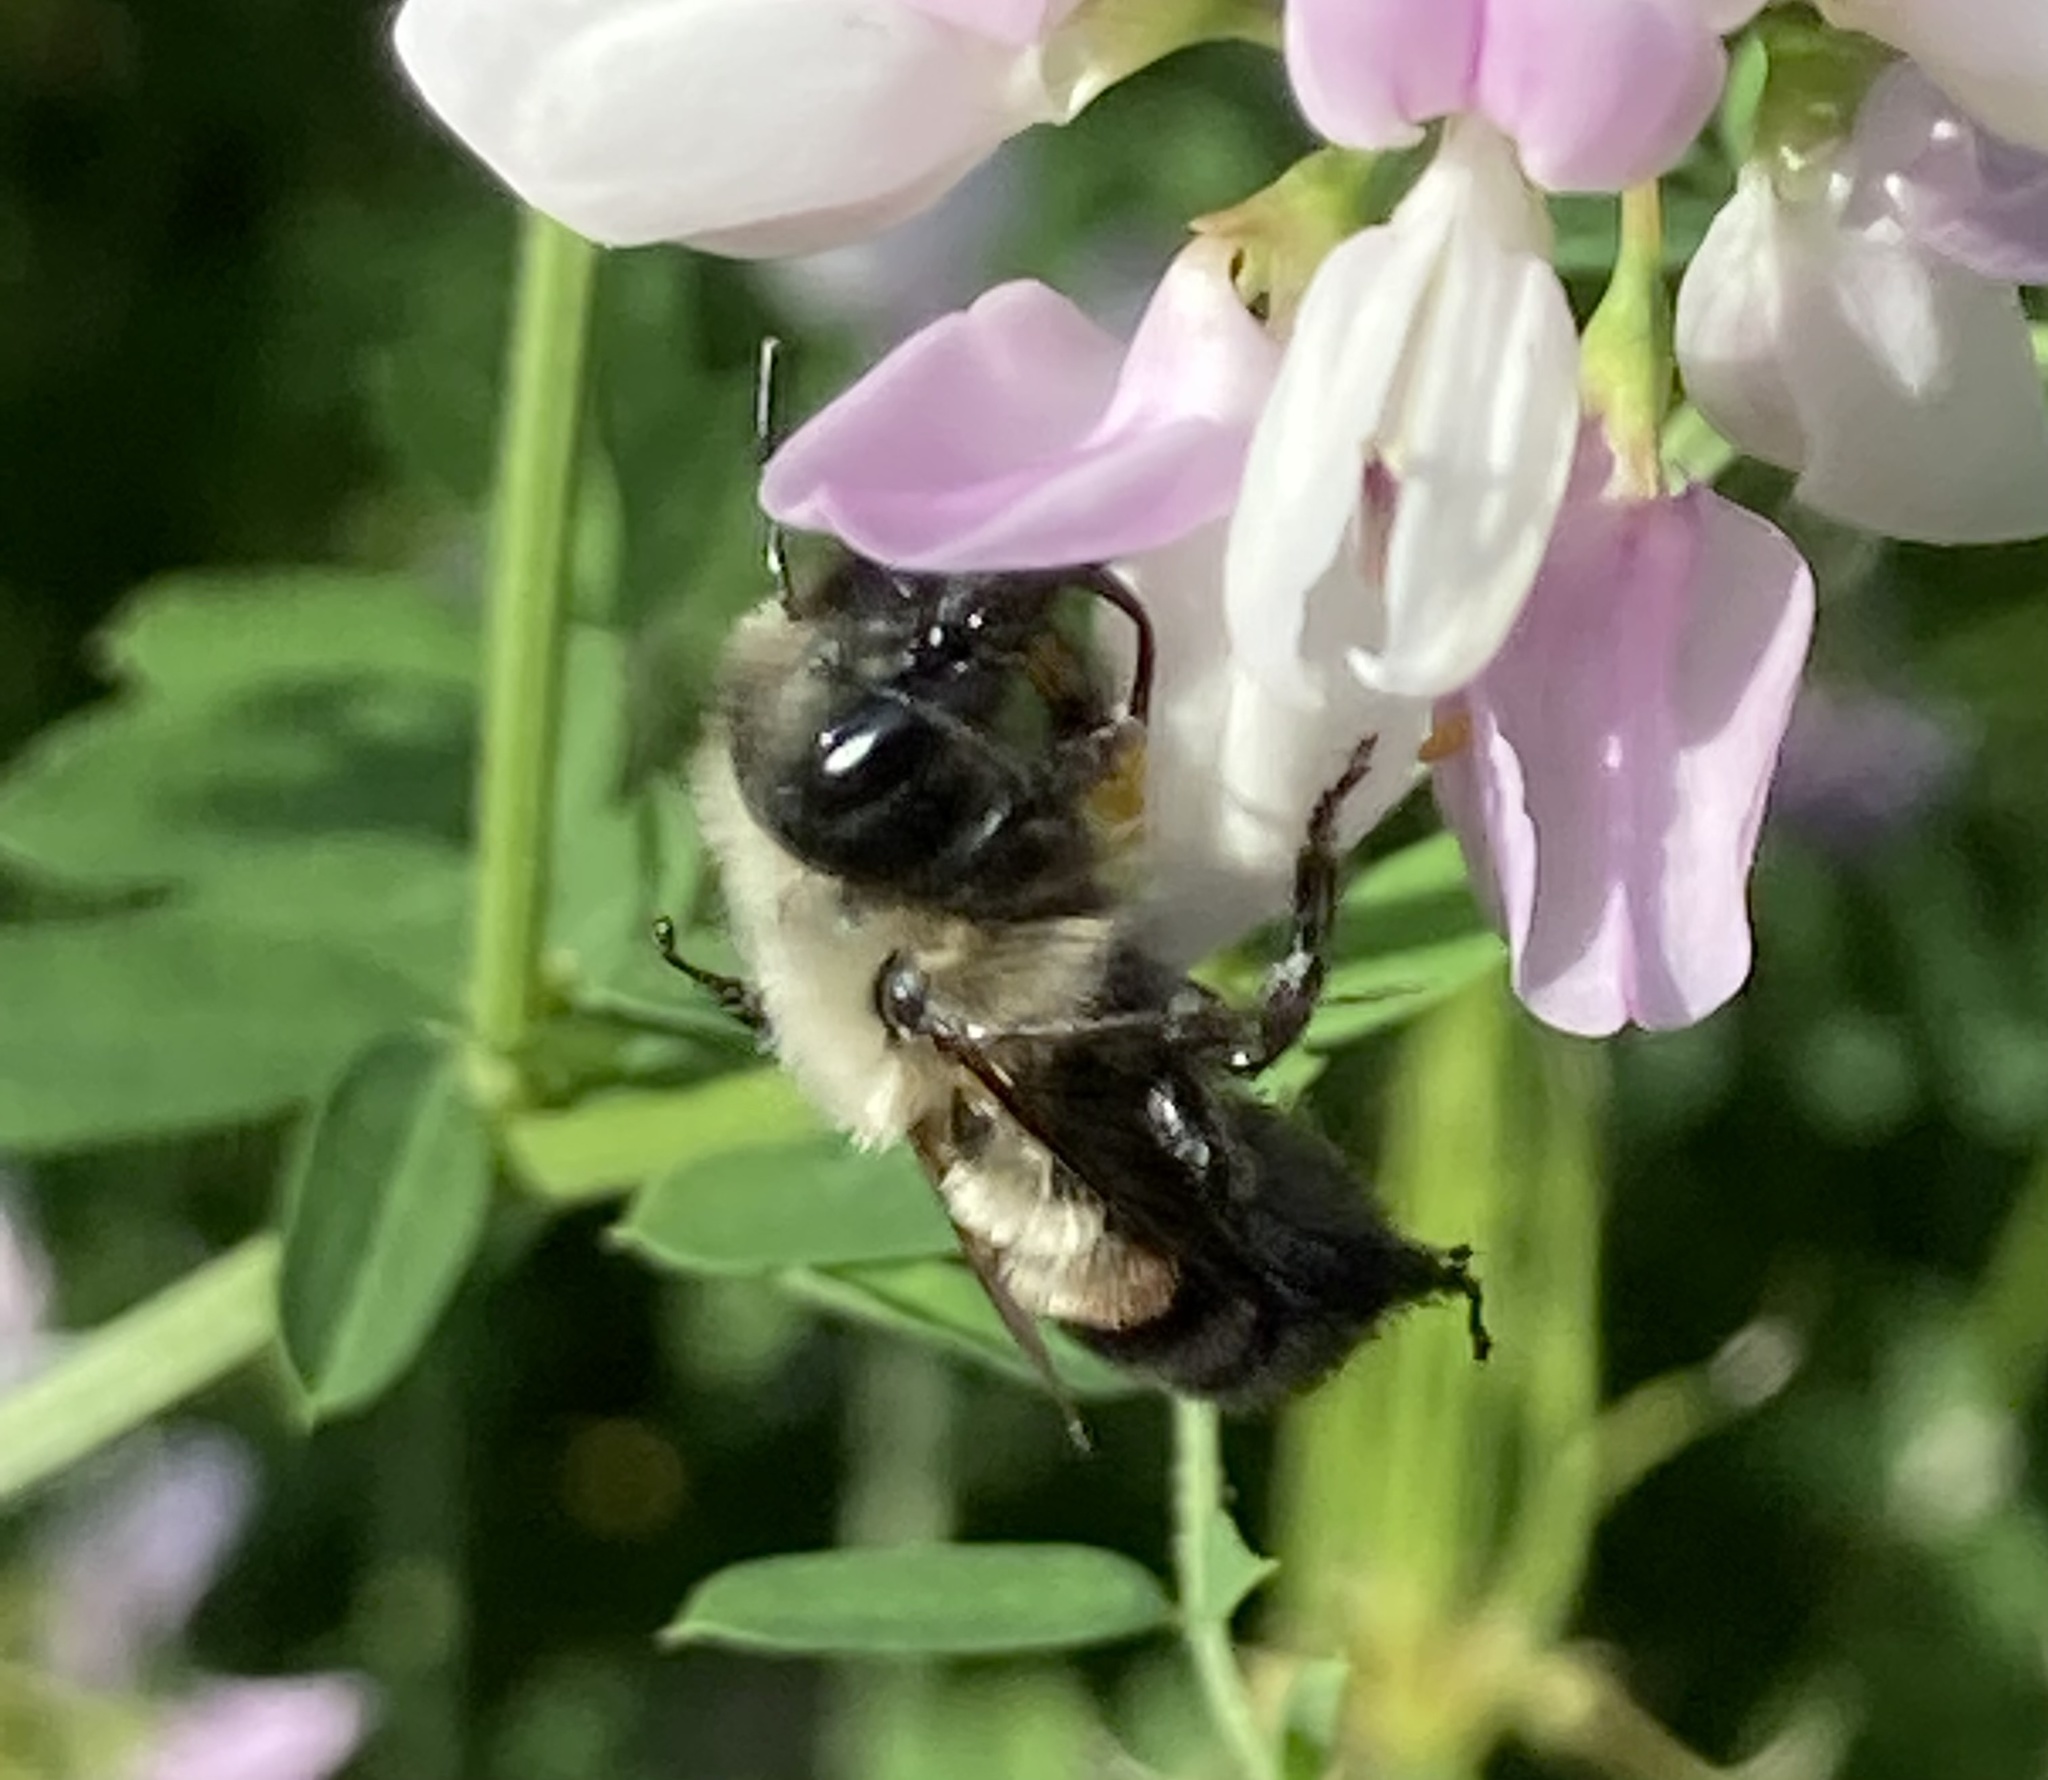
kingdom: Animalia
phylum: Arthropoda
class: Insecta
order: Hymenoptera
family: Megachilidae
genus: Osmia
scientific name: Osmia bucephala
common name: Bufflehead mason bee
